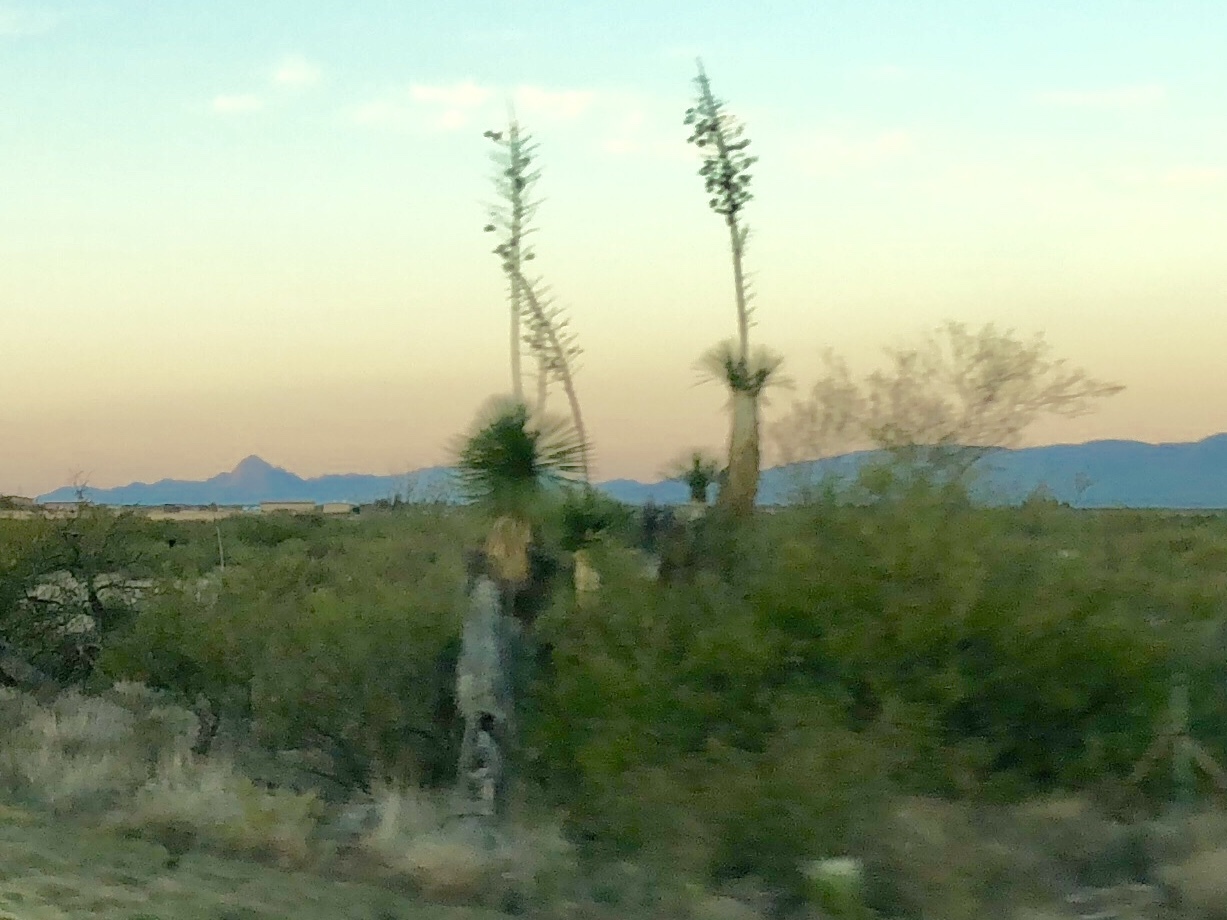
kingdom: Plantae
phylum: Tracheophyta
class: Liliopsida
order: Asparagales
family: Asparagaceae
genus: Yucca
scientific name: Yucca elata
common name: Palmella
